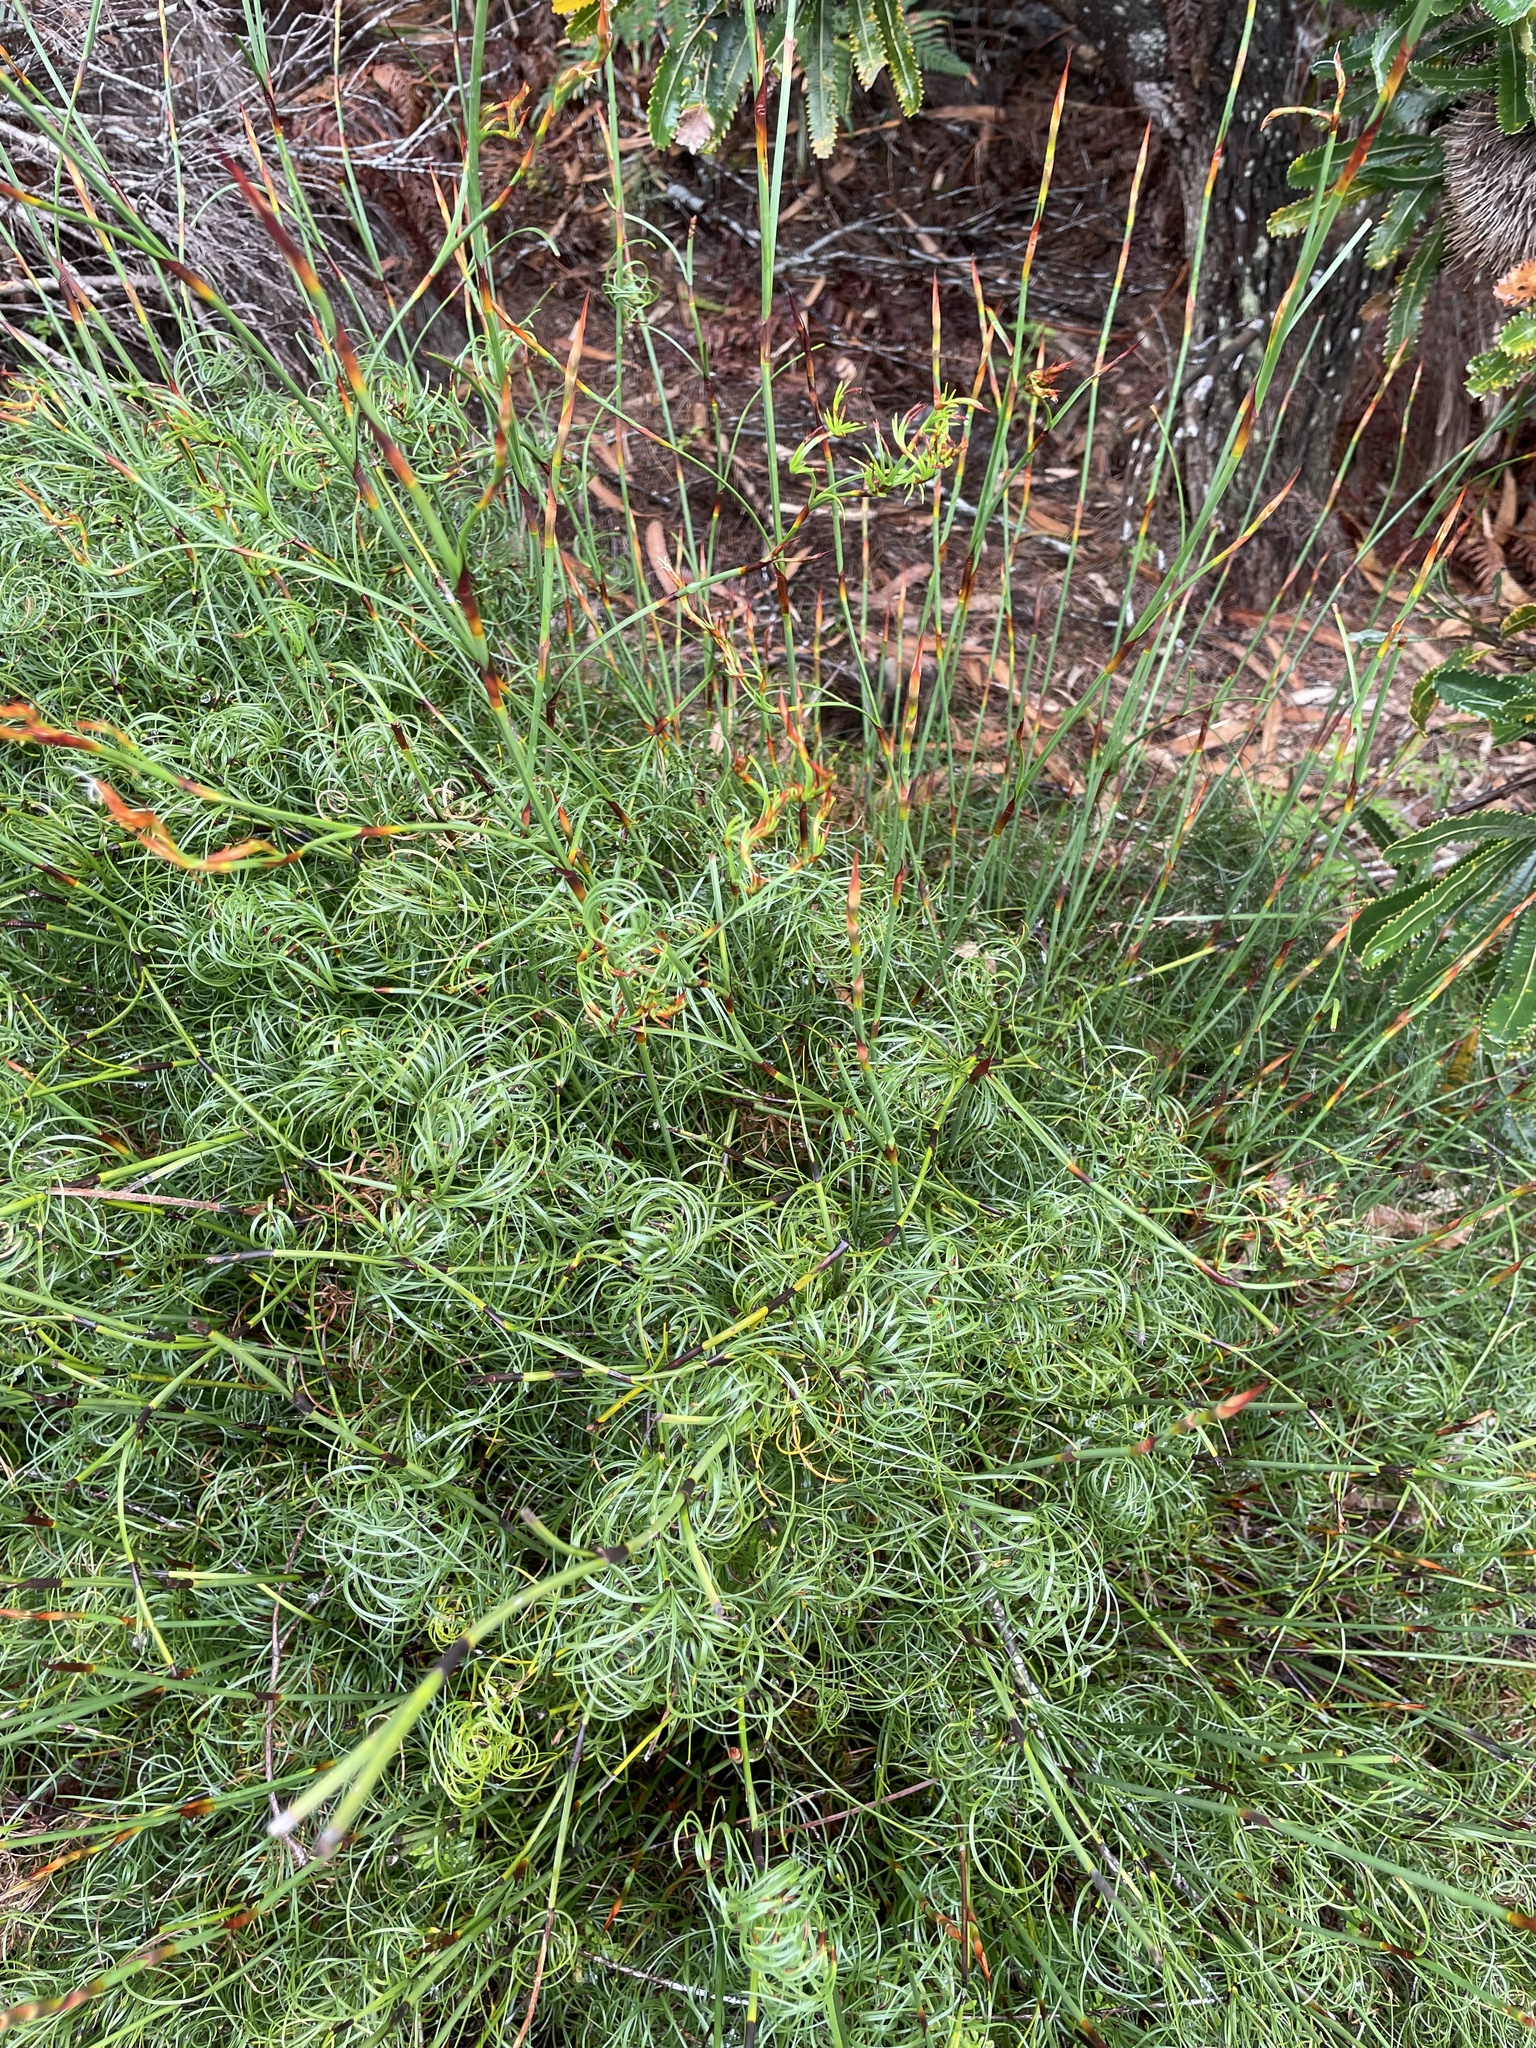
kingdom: Plantae
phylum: Tracheophyta
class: Liliopsida
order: Poales
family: Cyperaceae
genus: Caustis
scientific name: Caustis recurvata
